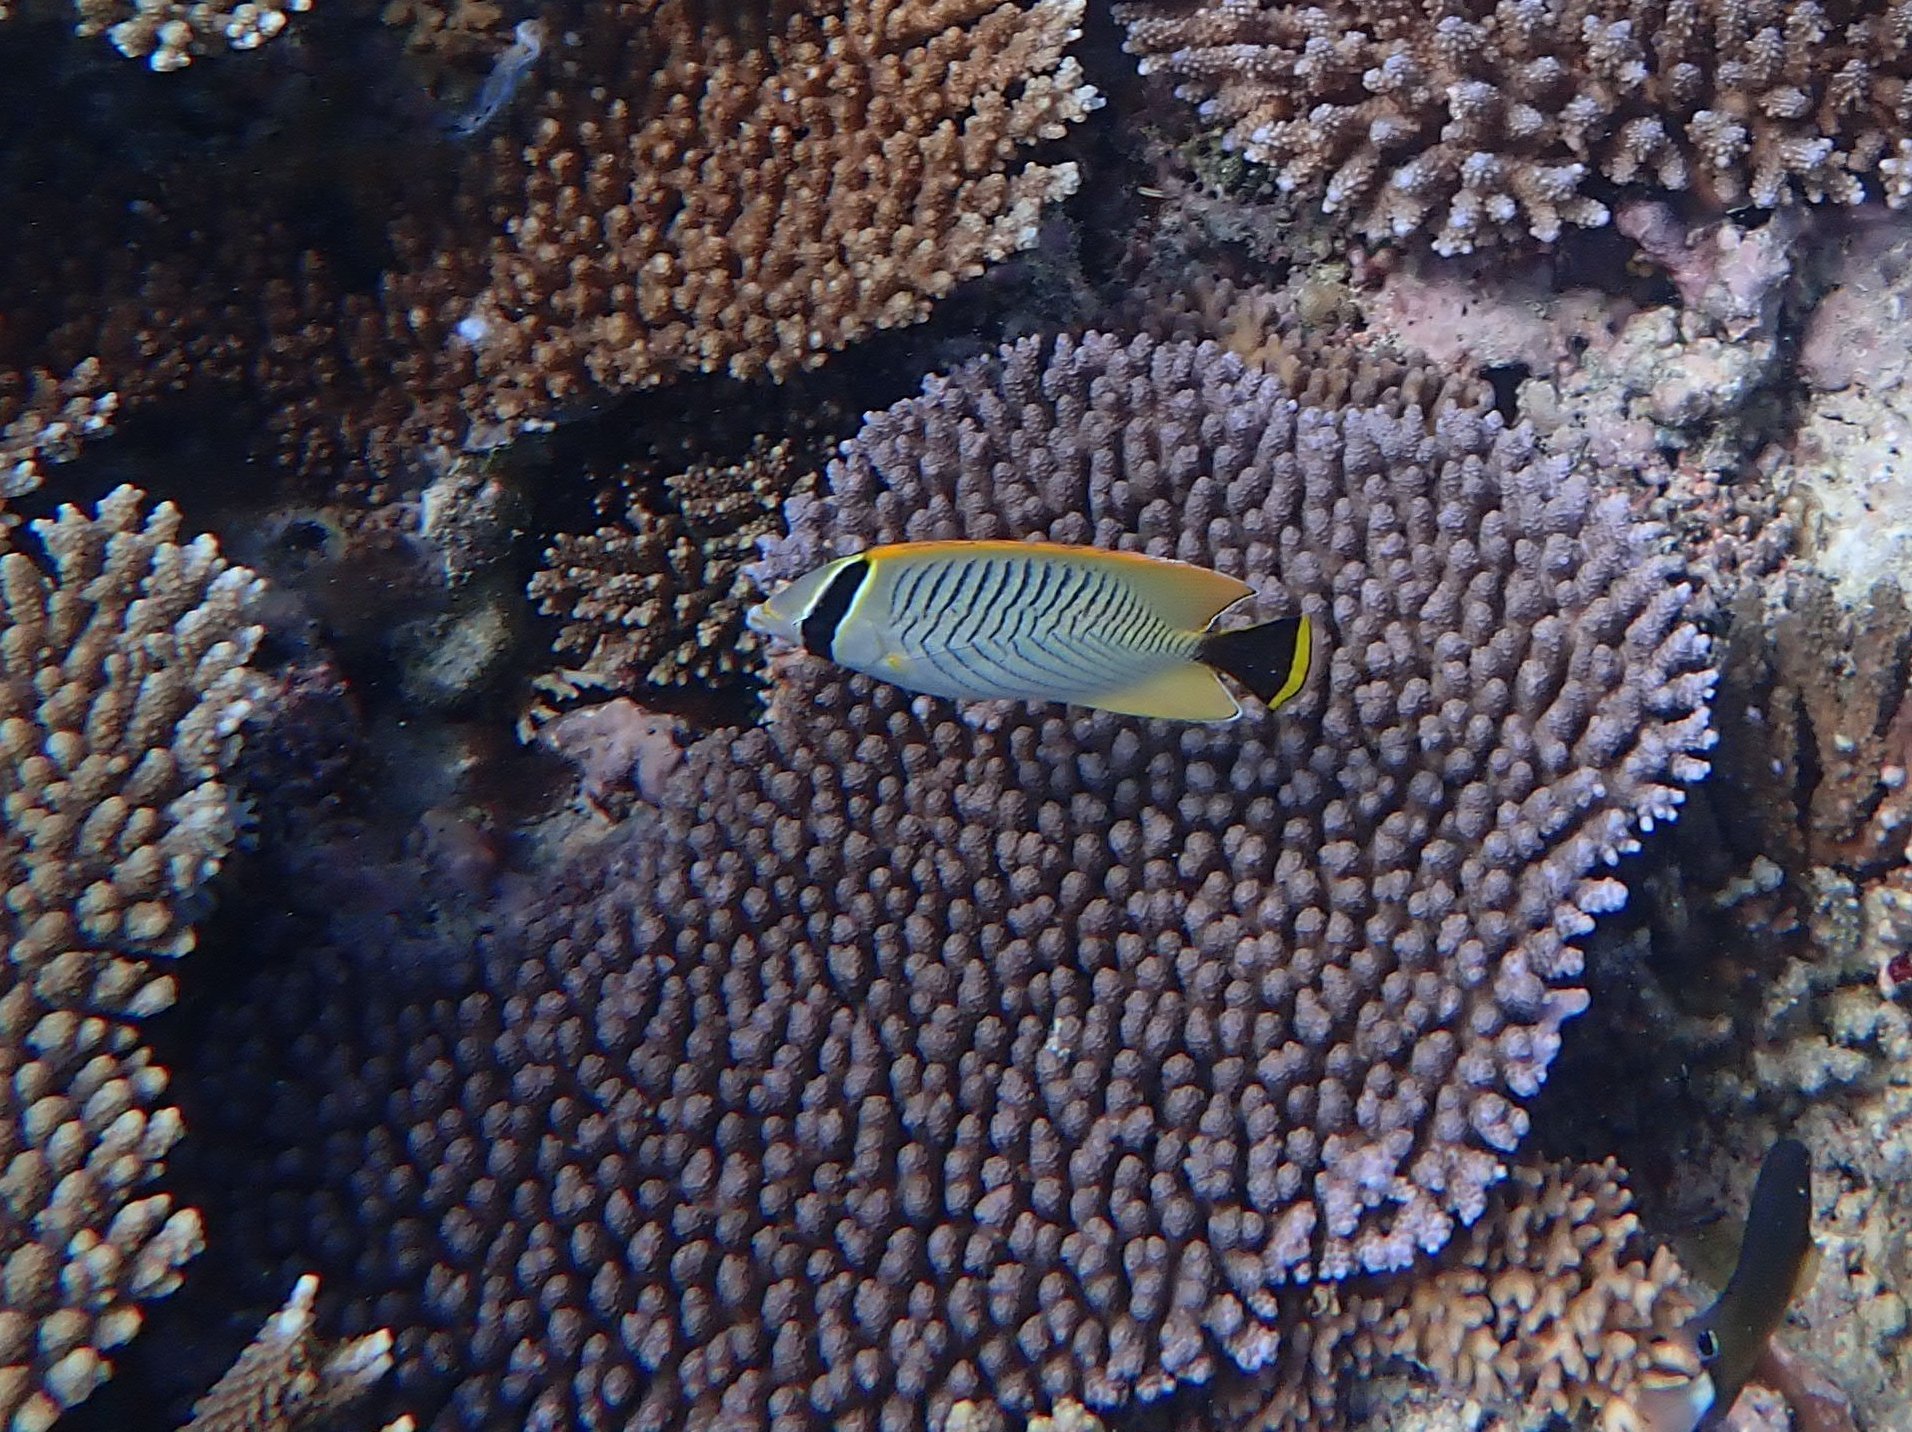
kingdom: Animalia
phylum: Chordata
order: Perciformes
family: Chaetodontidae
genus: Chaetodon
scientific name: Chaetodon trifascialis
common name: Chevroned butterflyfish
